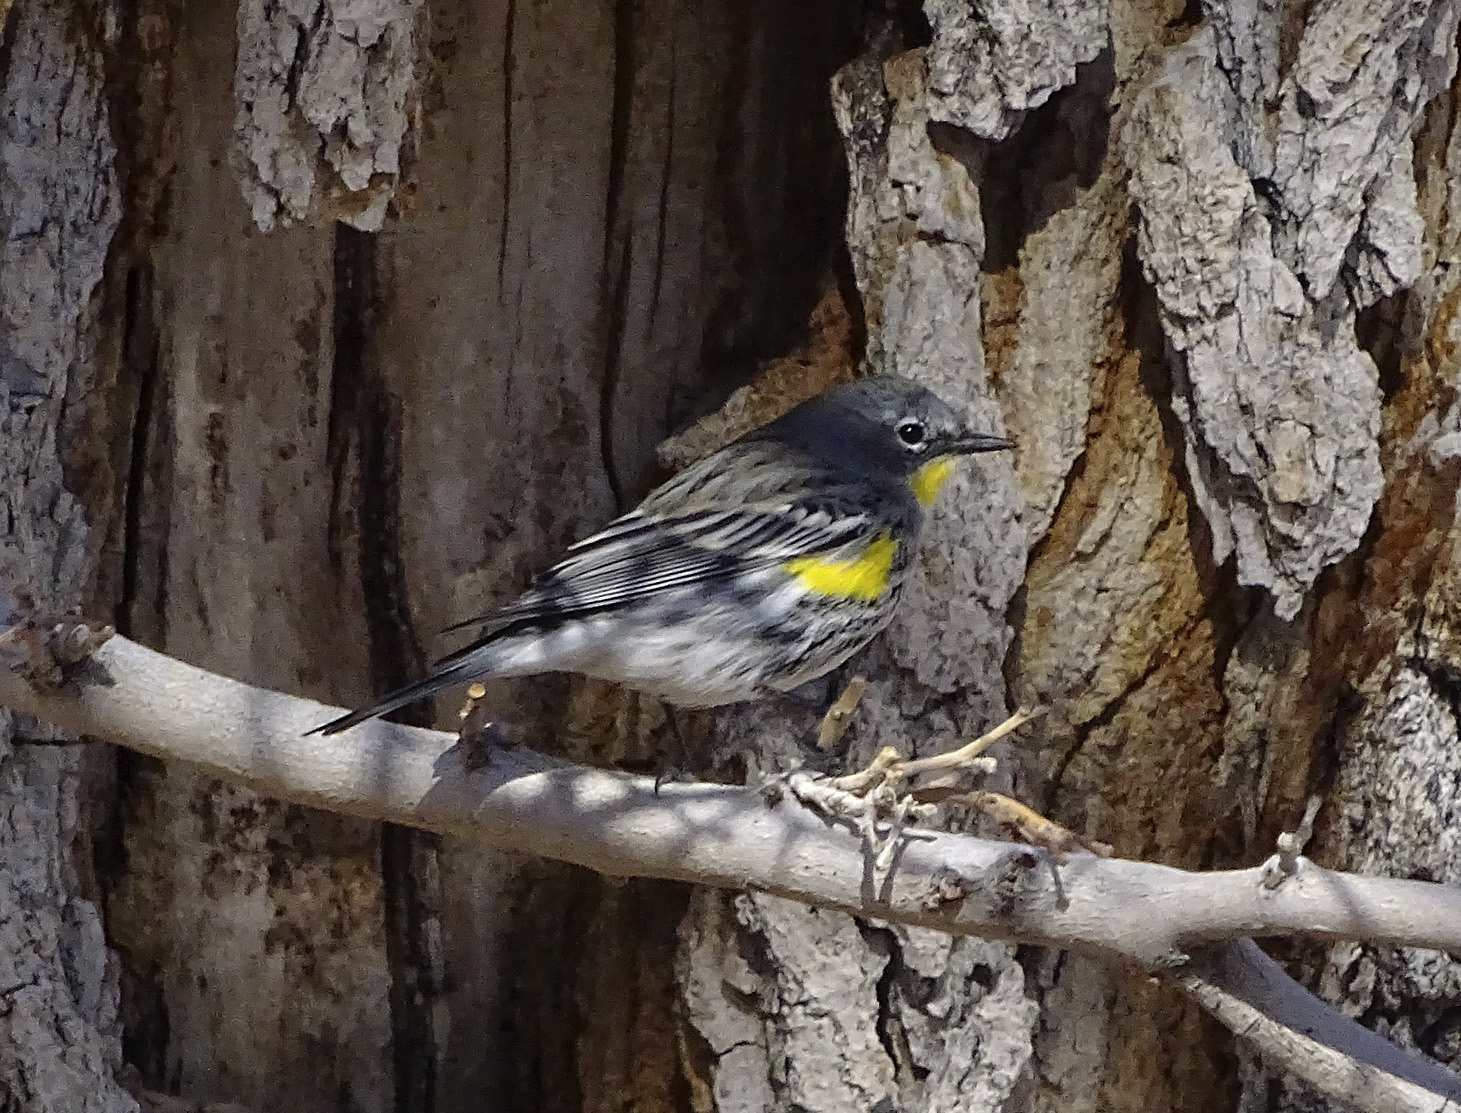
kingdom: Animalia
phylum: Chordata
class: Aves
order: Passeriformes
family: Parulidae
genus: Setophaga
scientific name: Setophaga coronata
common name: Myrtle warbler
